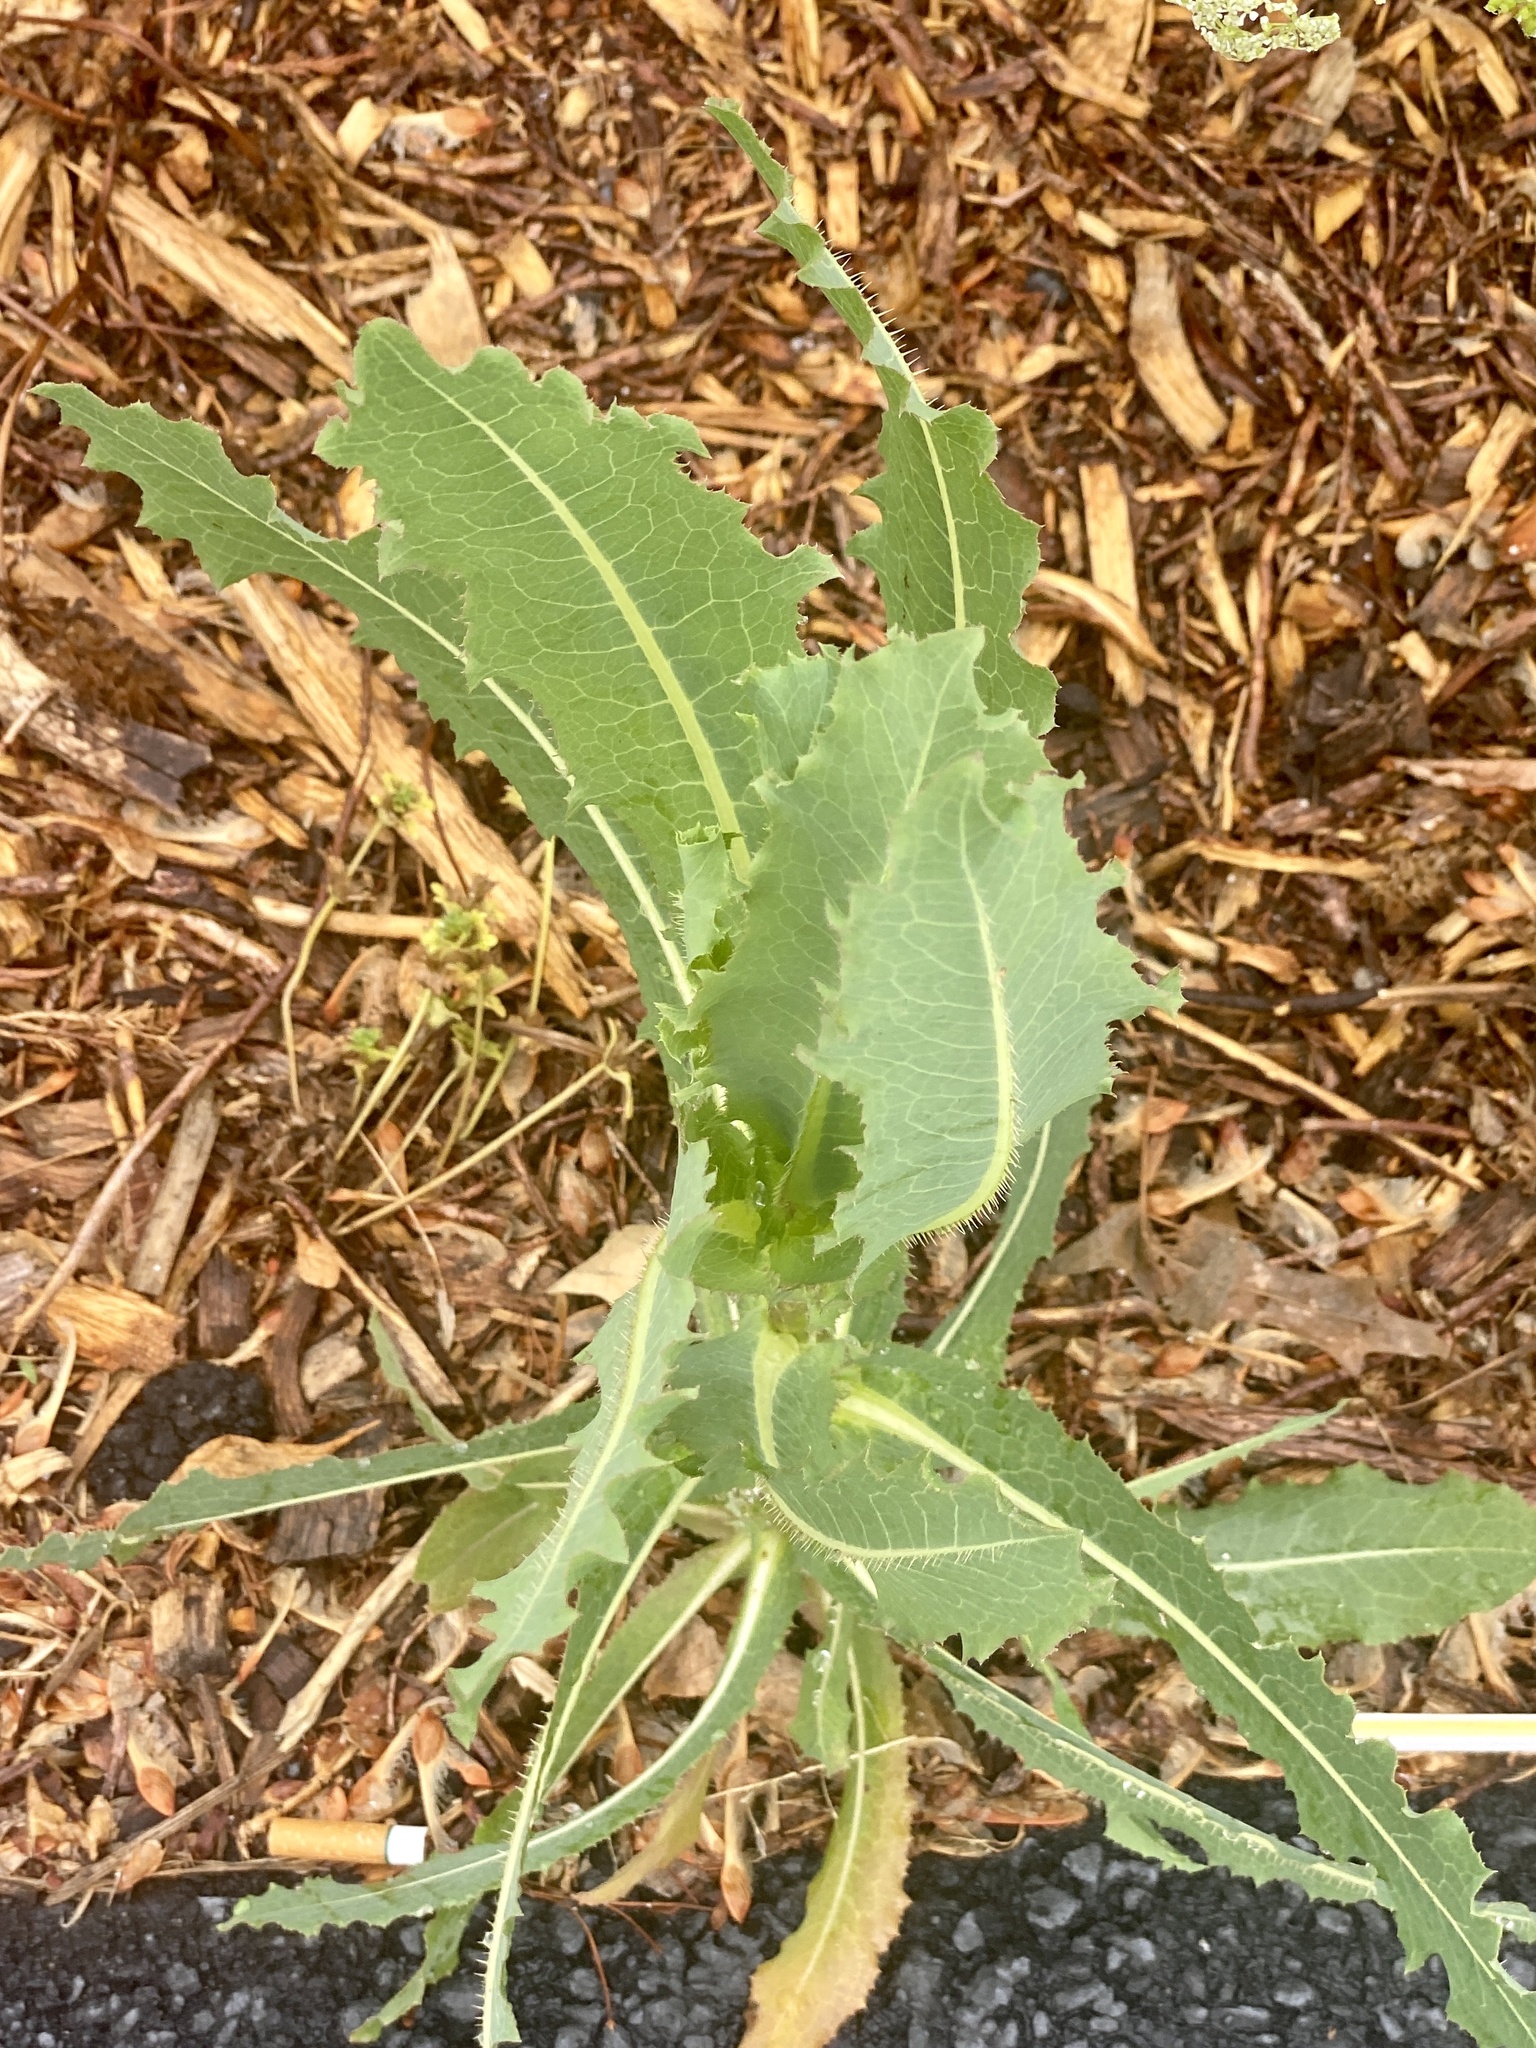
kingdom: Plantae
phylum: Tracheophyta
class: Magnoliopsida
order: Asterales
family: Asteraceae
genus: Lactuca
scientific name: Lactuca serriola
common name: Prickly lettuce
